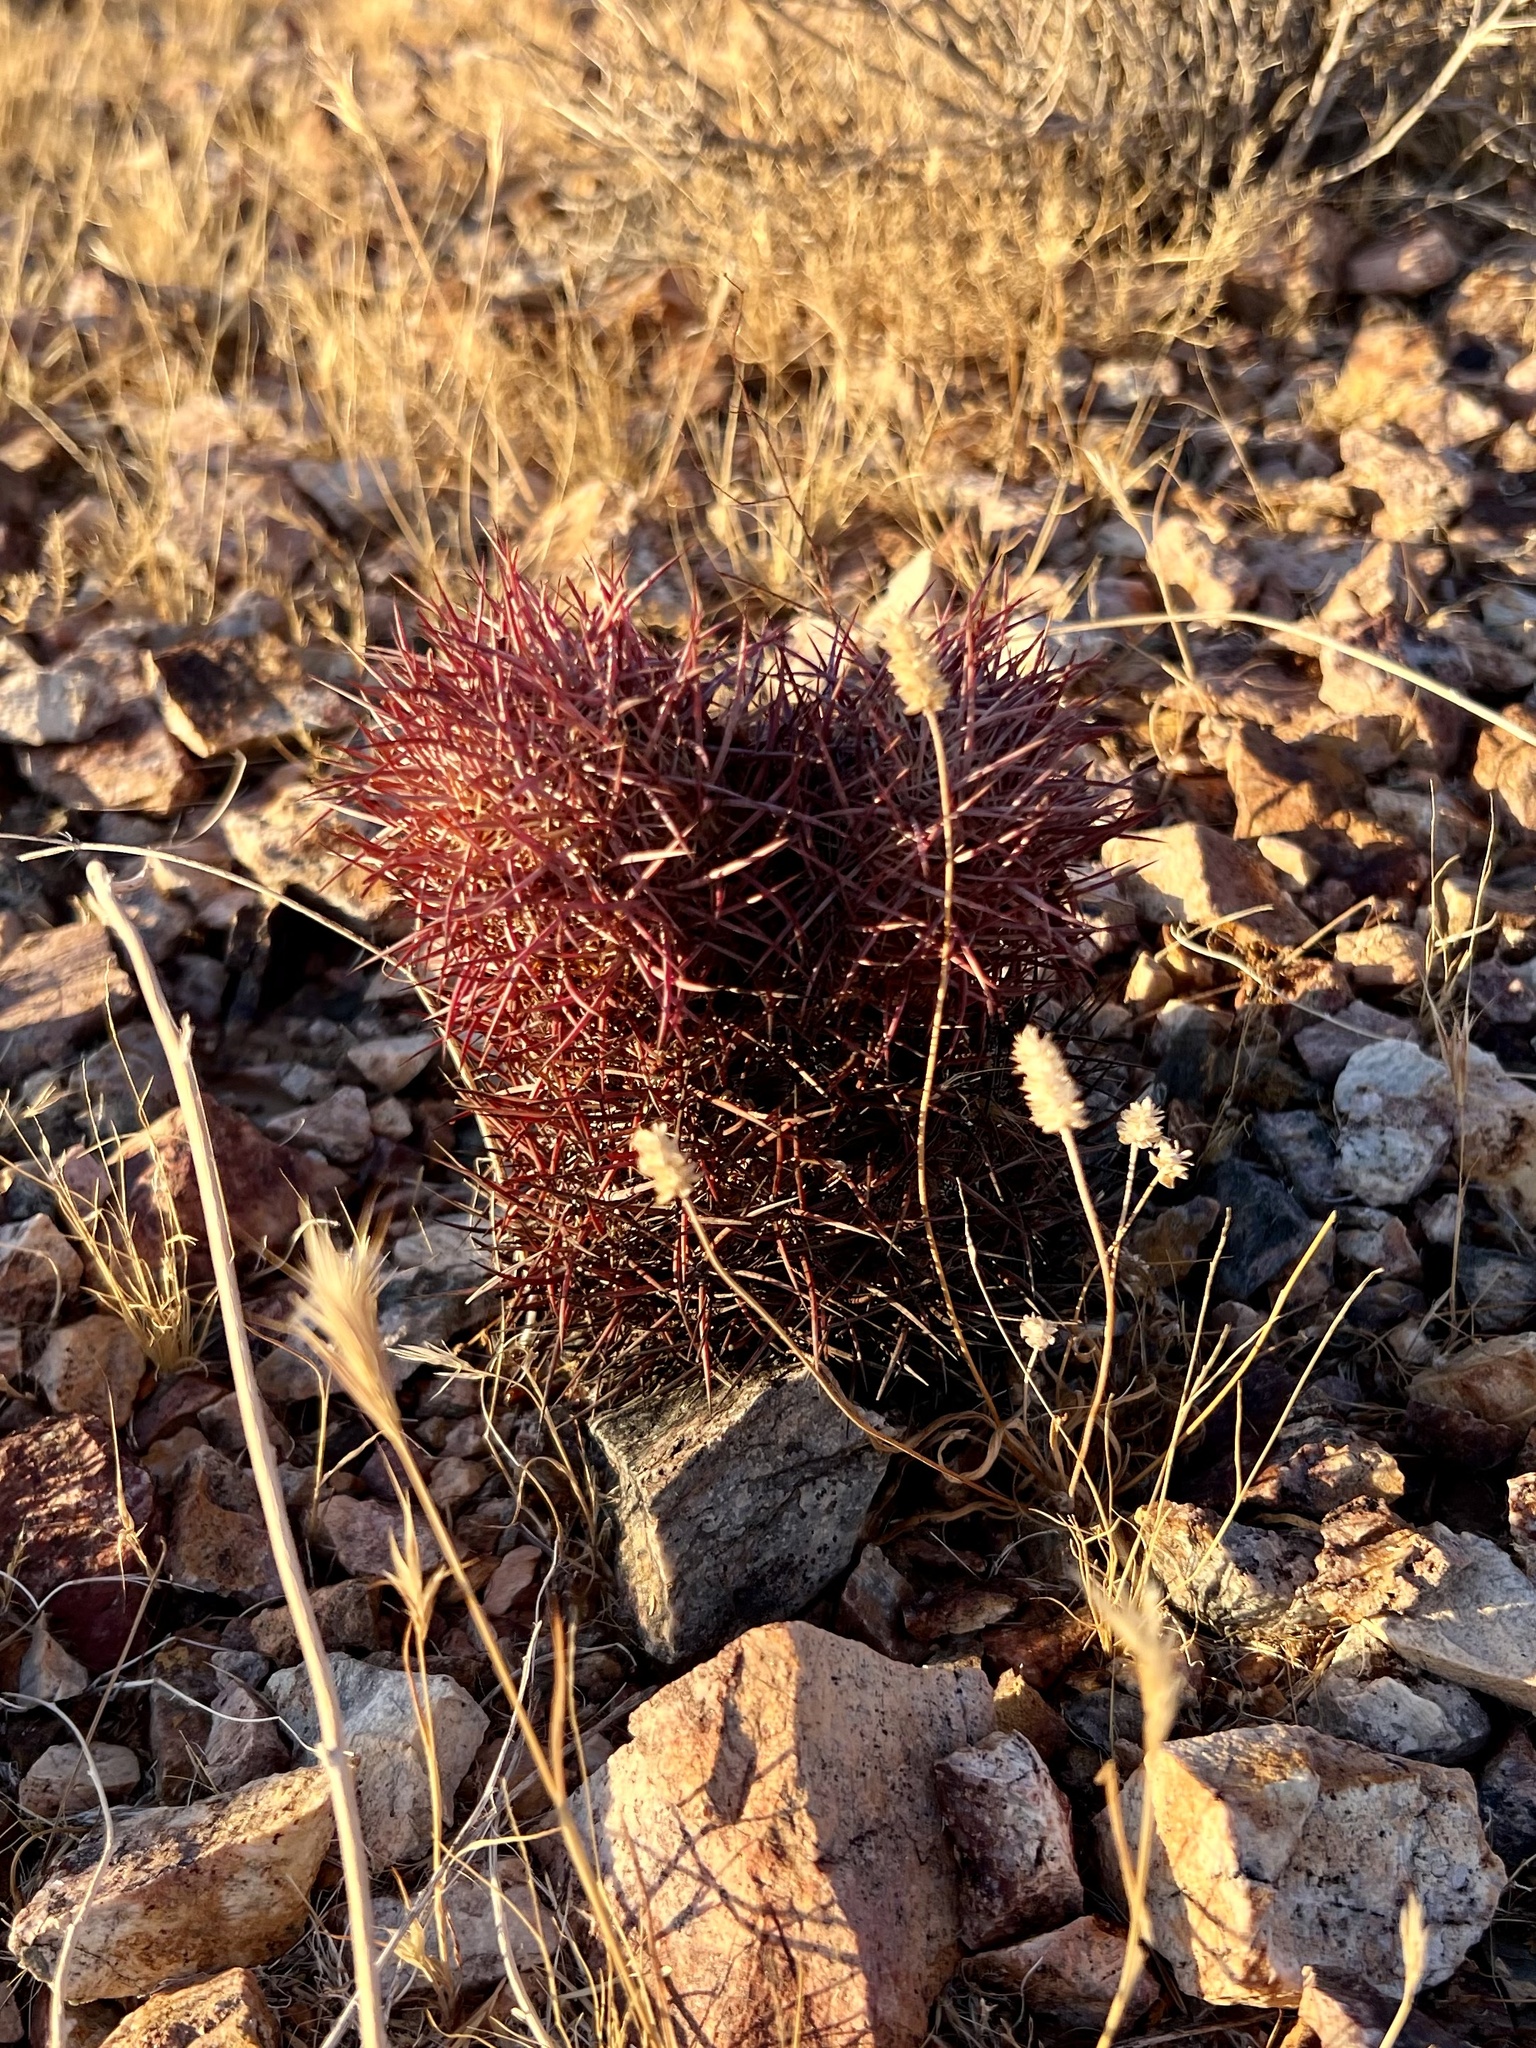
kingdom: Plantae
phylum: Tracheophyta
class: Magnoliopsida
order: Caryophyllales
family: Cactaceae
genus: Sclerocactus
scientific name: Sclerocactus johnsonii
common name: Eight-spine fishhook cactus
